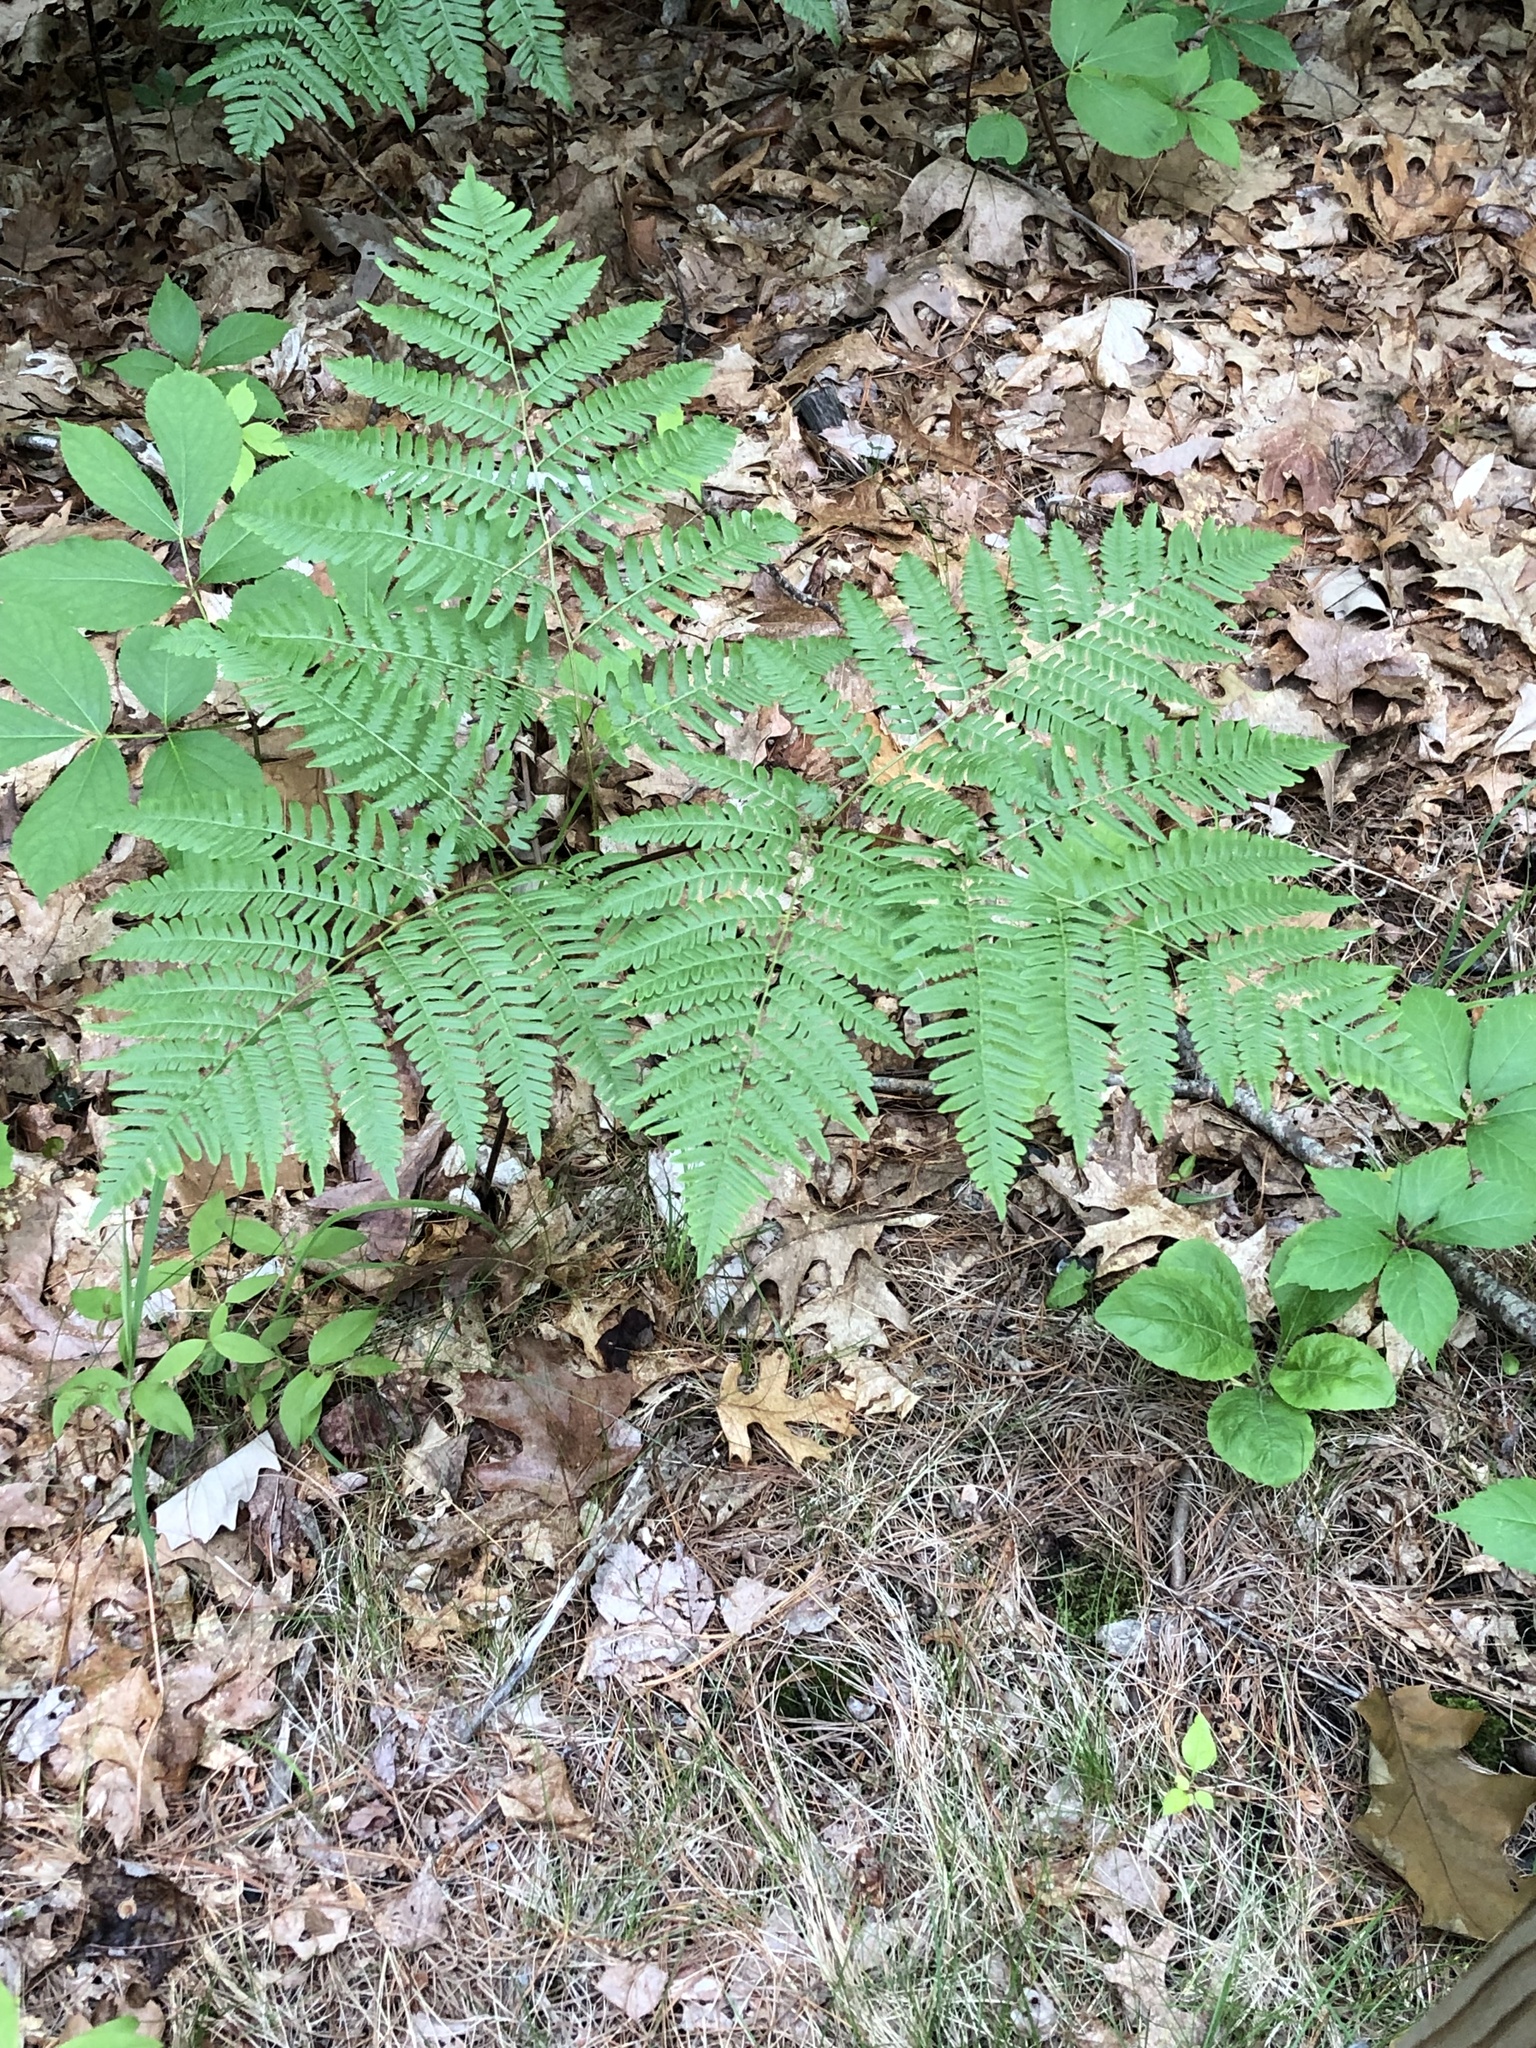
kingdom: Plantae
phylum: Tracheophyta
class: Polypodiopsida
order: Polypodiales
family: Dennstaedtiaceae
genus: Pteridium
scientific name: Pteridium aquilinum
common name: Bracken
